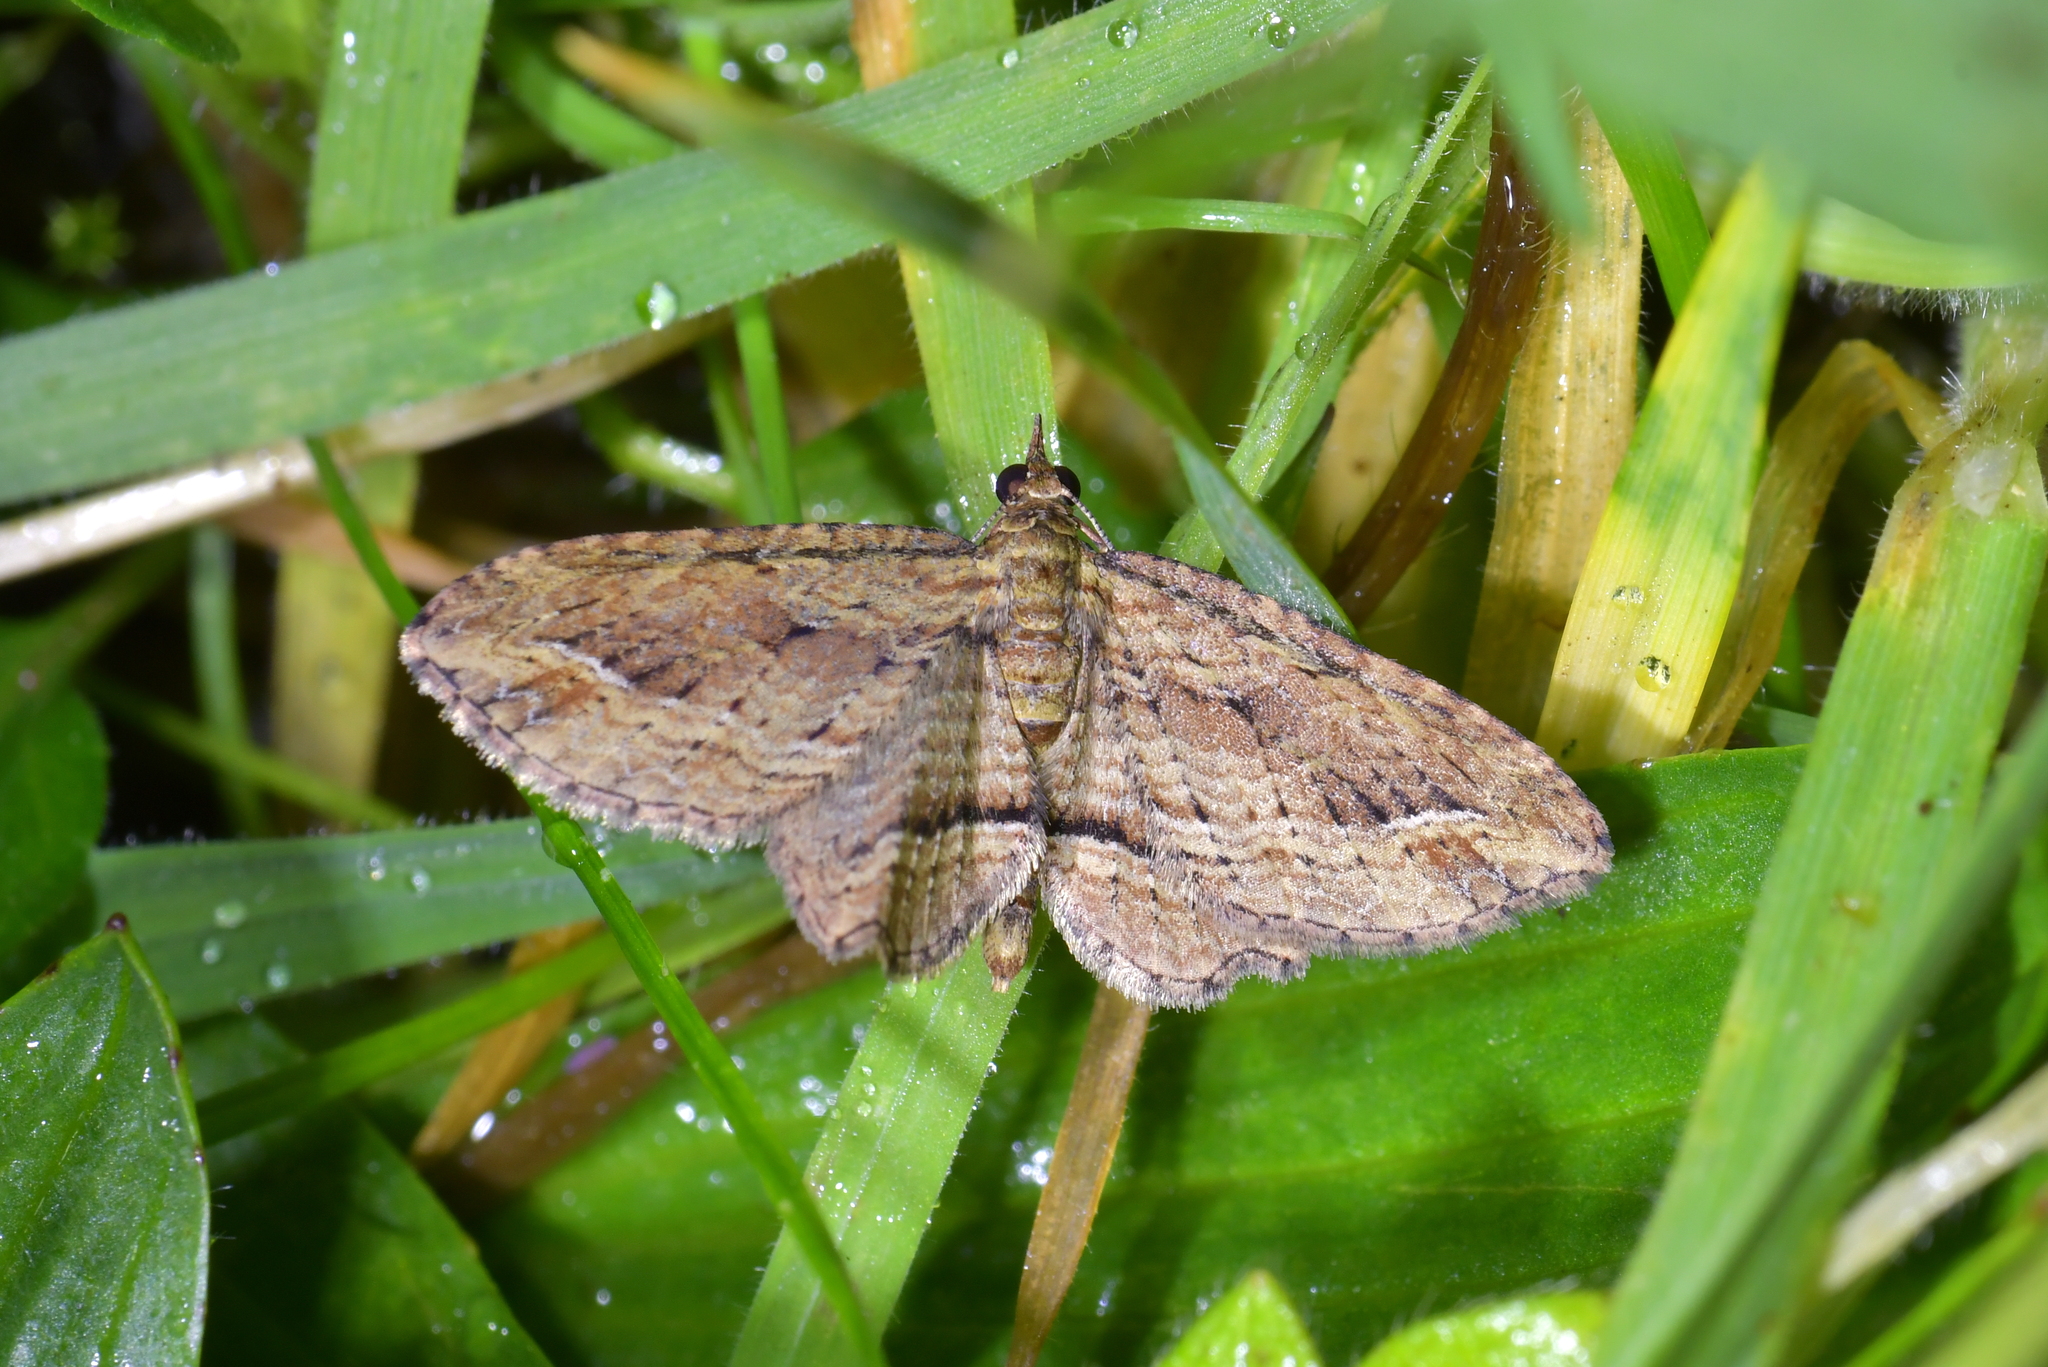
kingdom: Animalia
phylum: Arthropoda
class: Insecta
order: Lepidoptera
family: Geometridae
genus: Chloroclystis
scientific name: Chloroclystis filata
